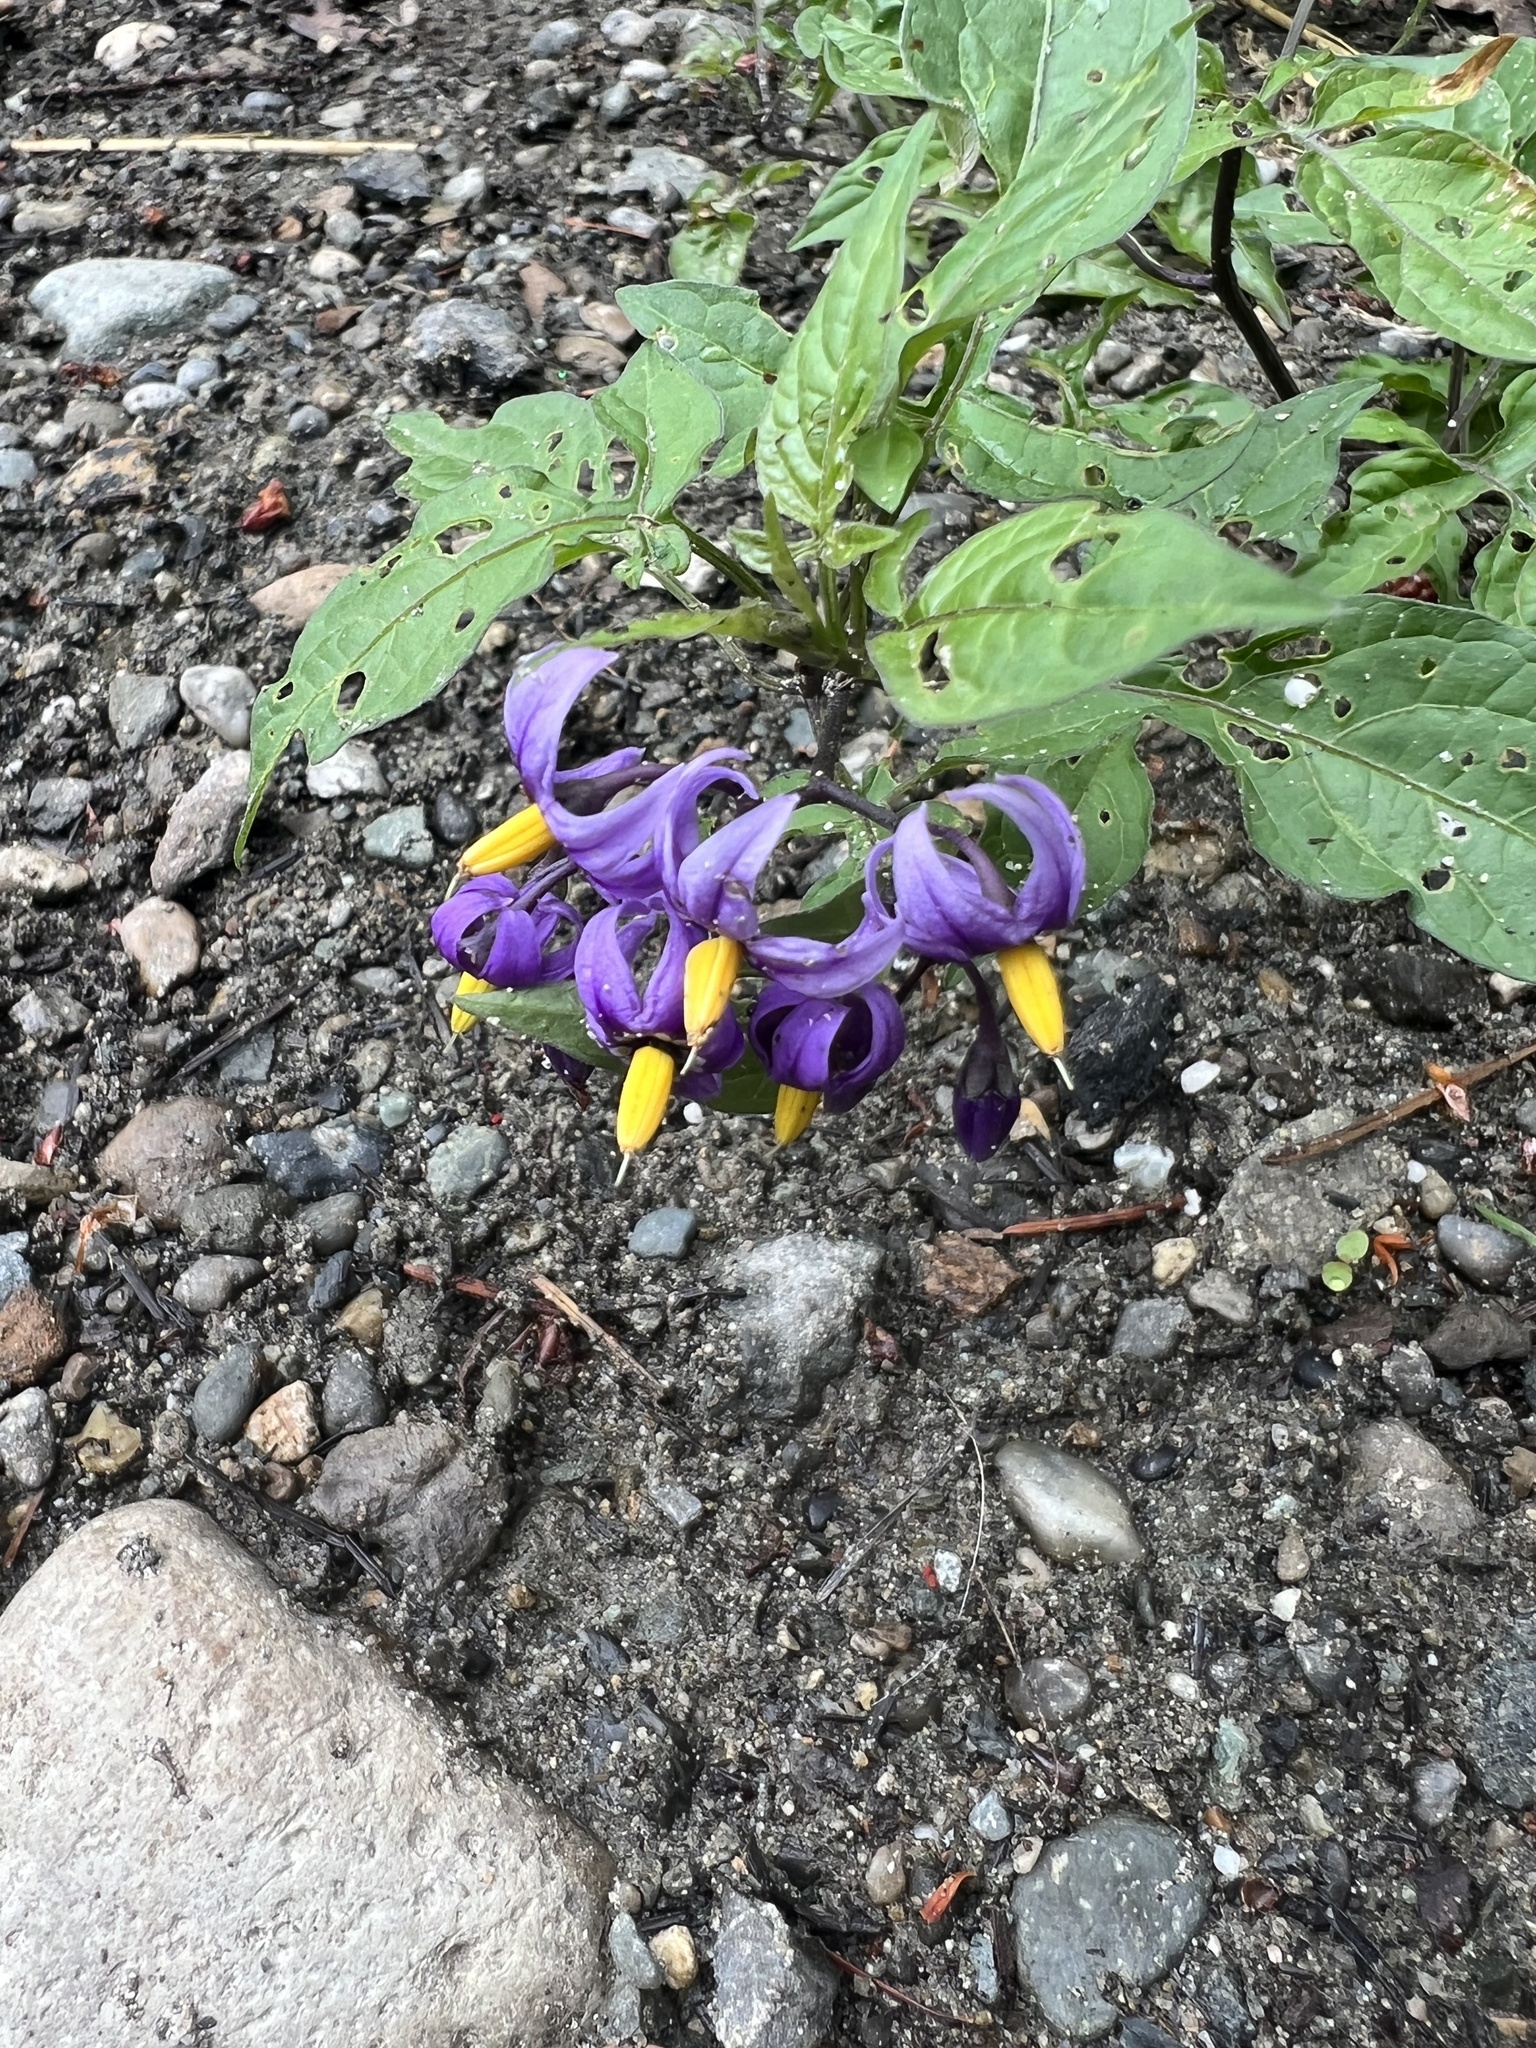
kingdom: Plantae
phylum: Tracheophyta
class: Magnoliopsida
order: Solanales
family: Solanaceae
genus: Solanum
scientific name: Solanum dulcamara
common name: Climbing nightshade
